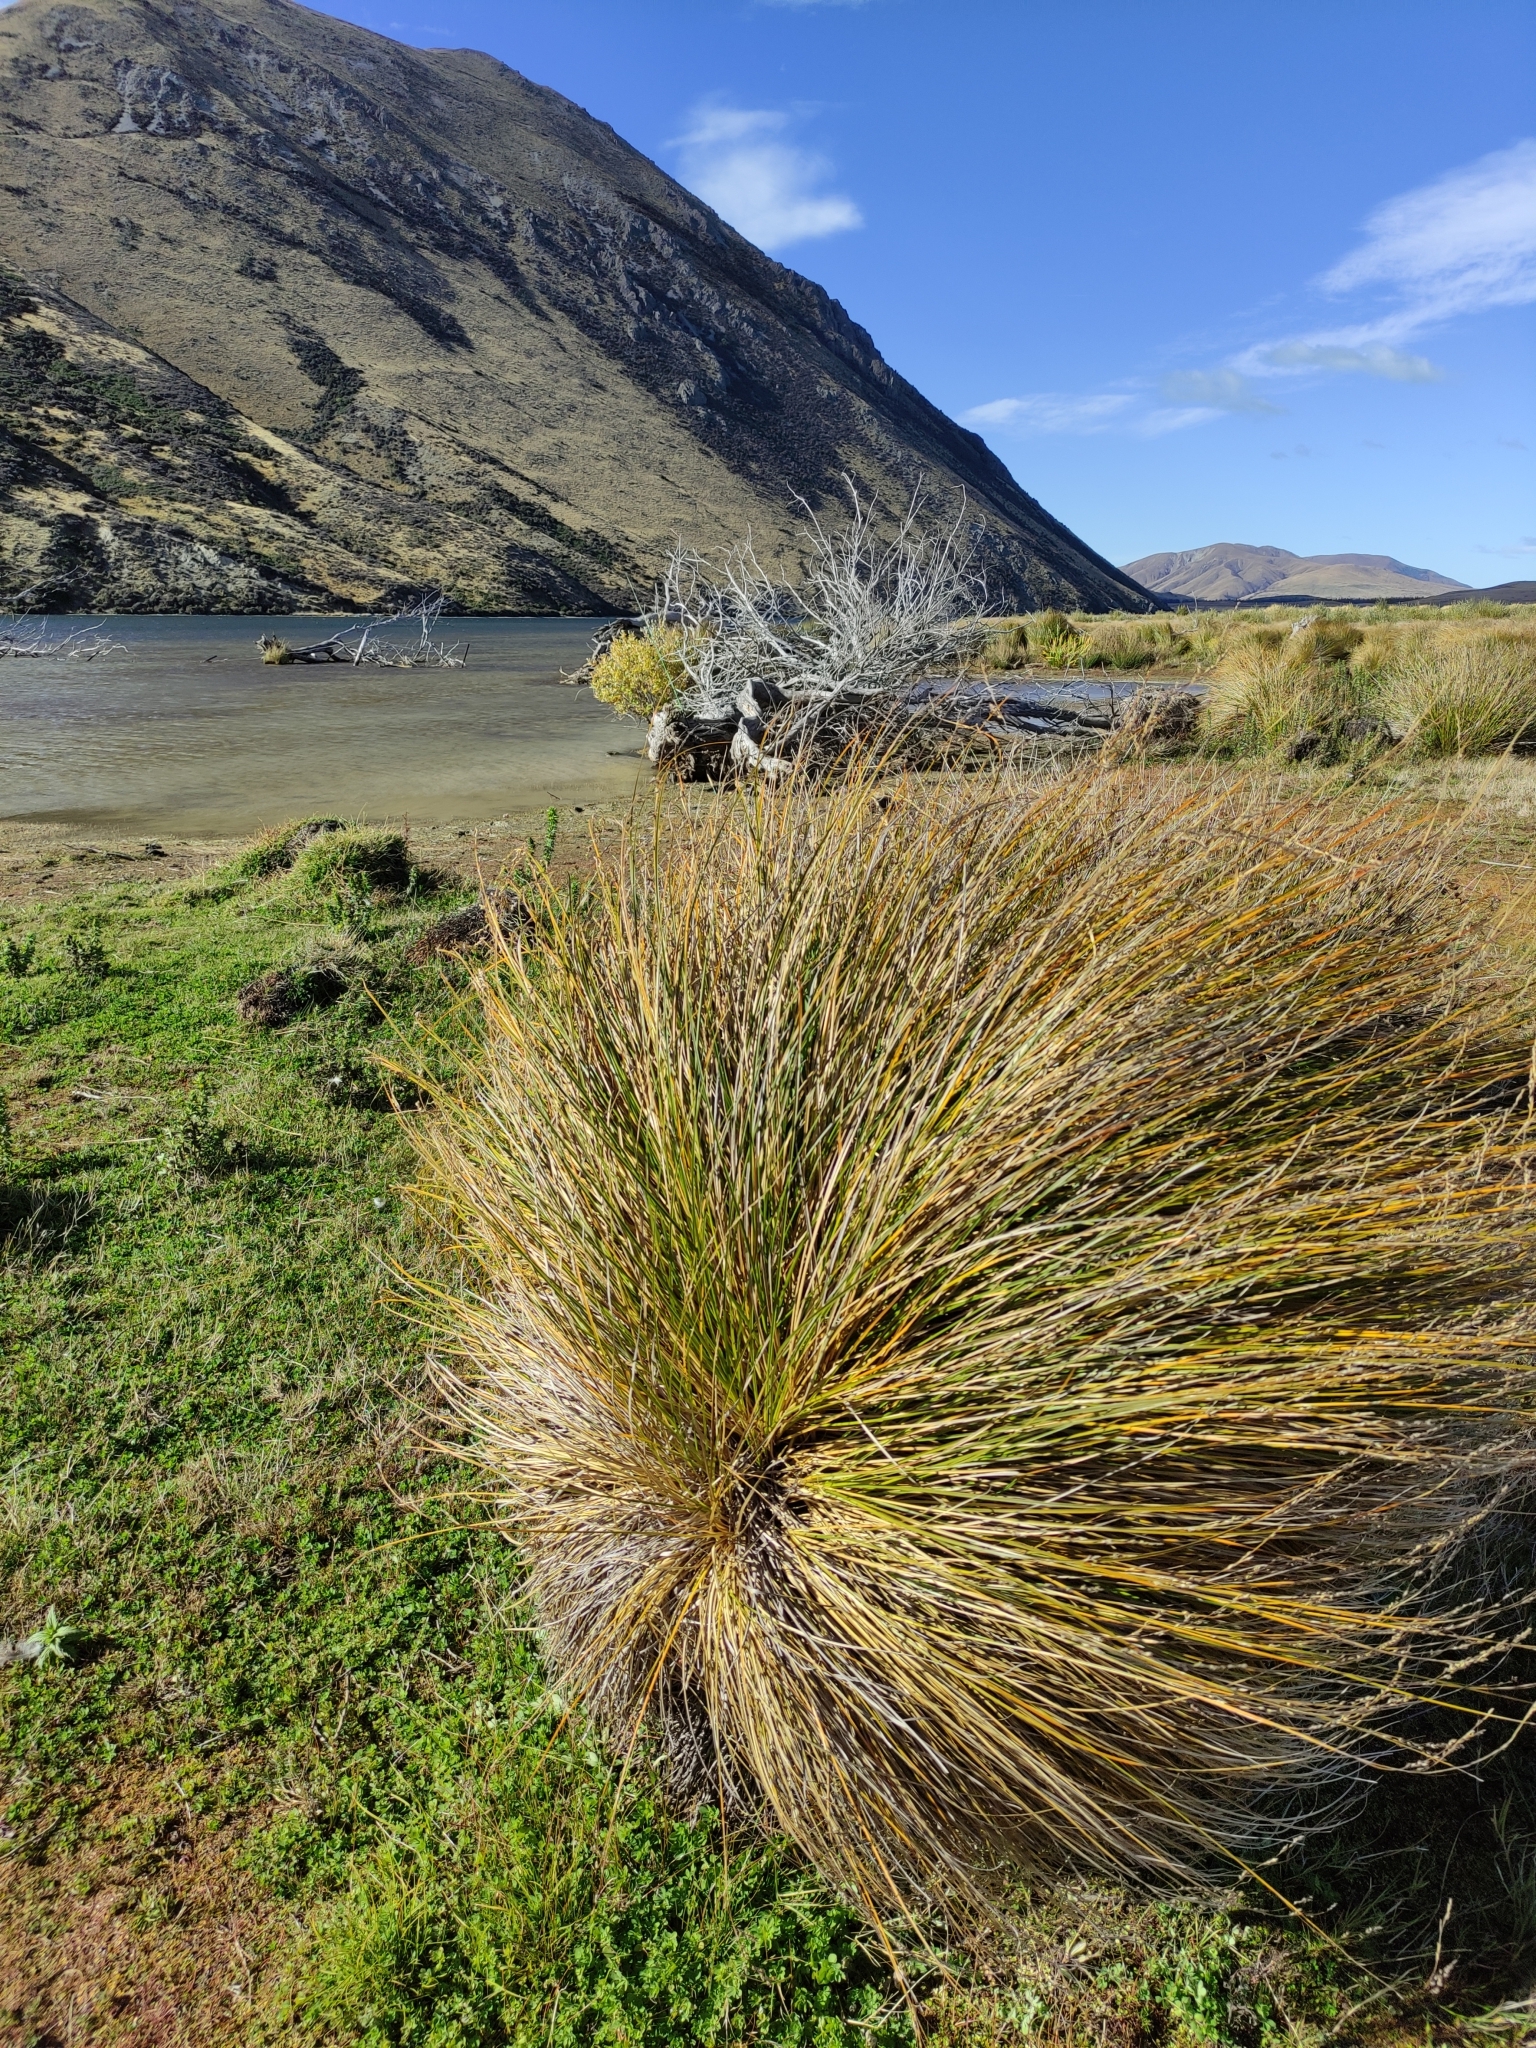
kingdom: Plantae
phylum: Tracheophyta
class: Liliopsida
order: Poales
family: Cyperaceae
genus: Carex
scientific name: Carex secta
